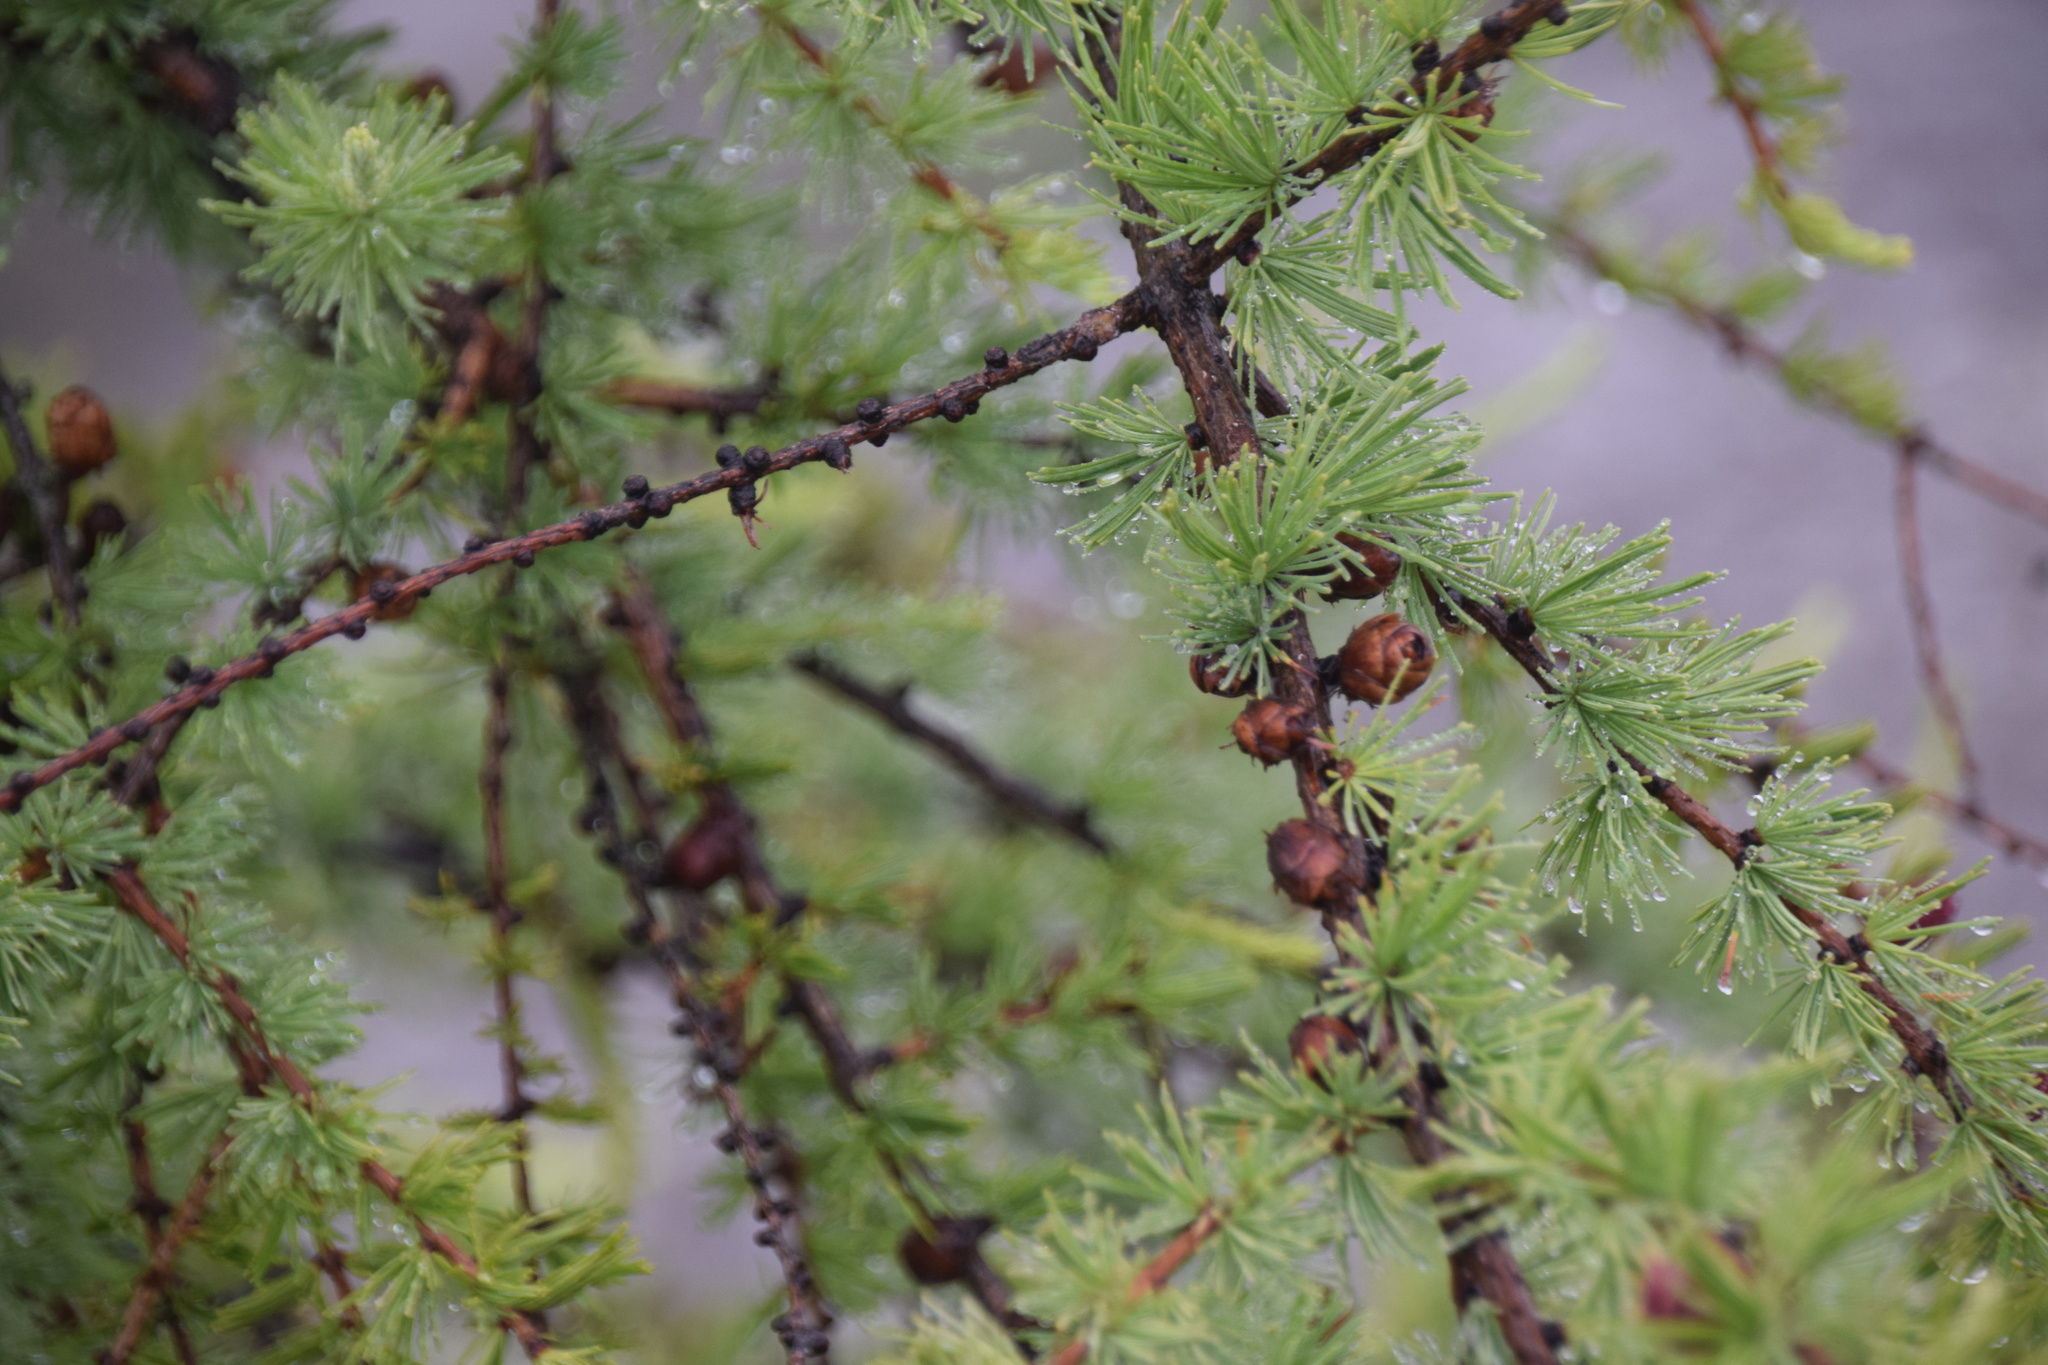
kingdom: Plantae
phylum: Tracheophyta
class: Pinopsida
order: Pinales
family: Pinaceae
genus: Larix
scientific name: Larix laricina
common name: American larch
